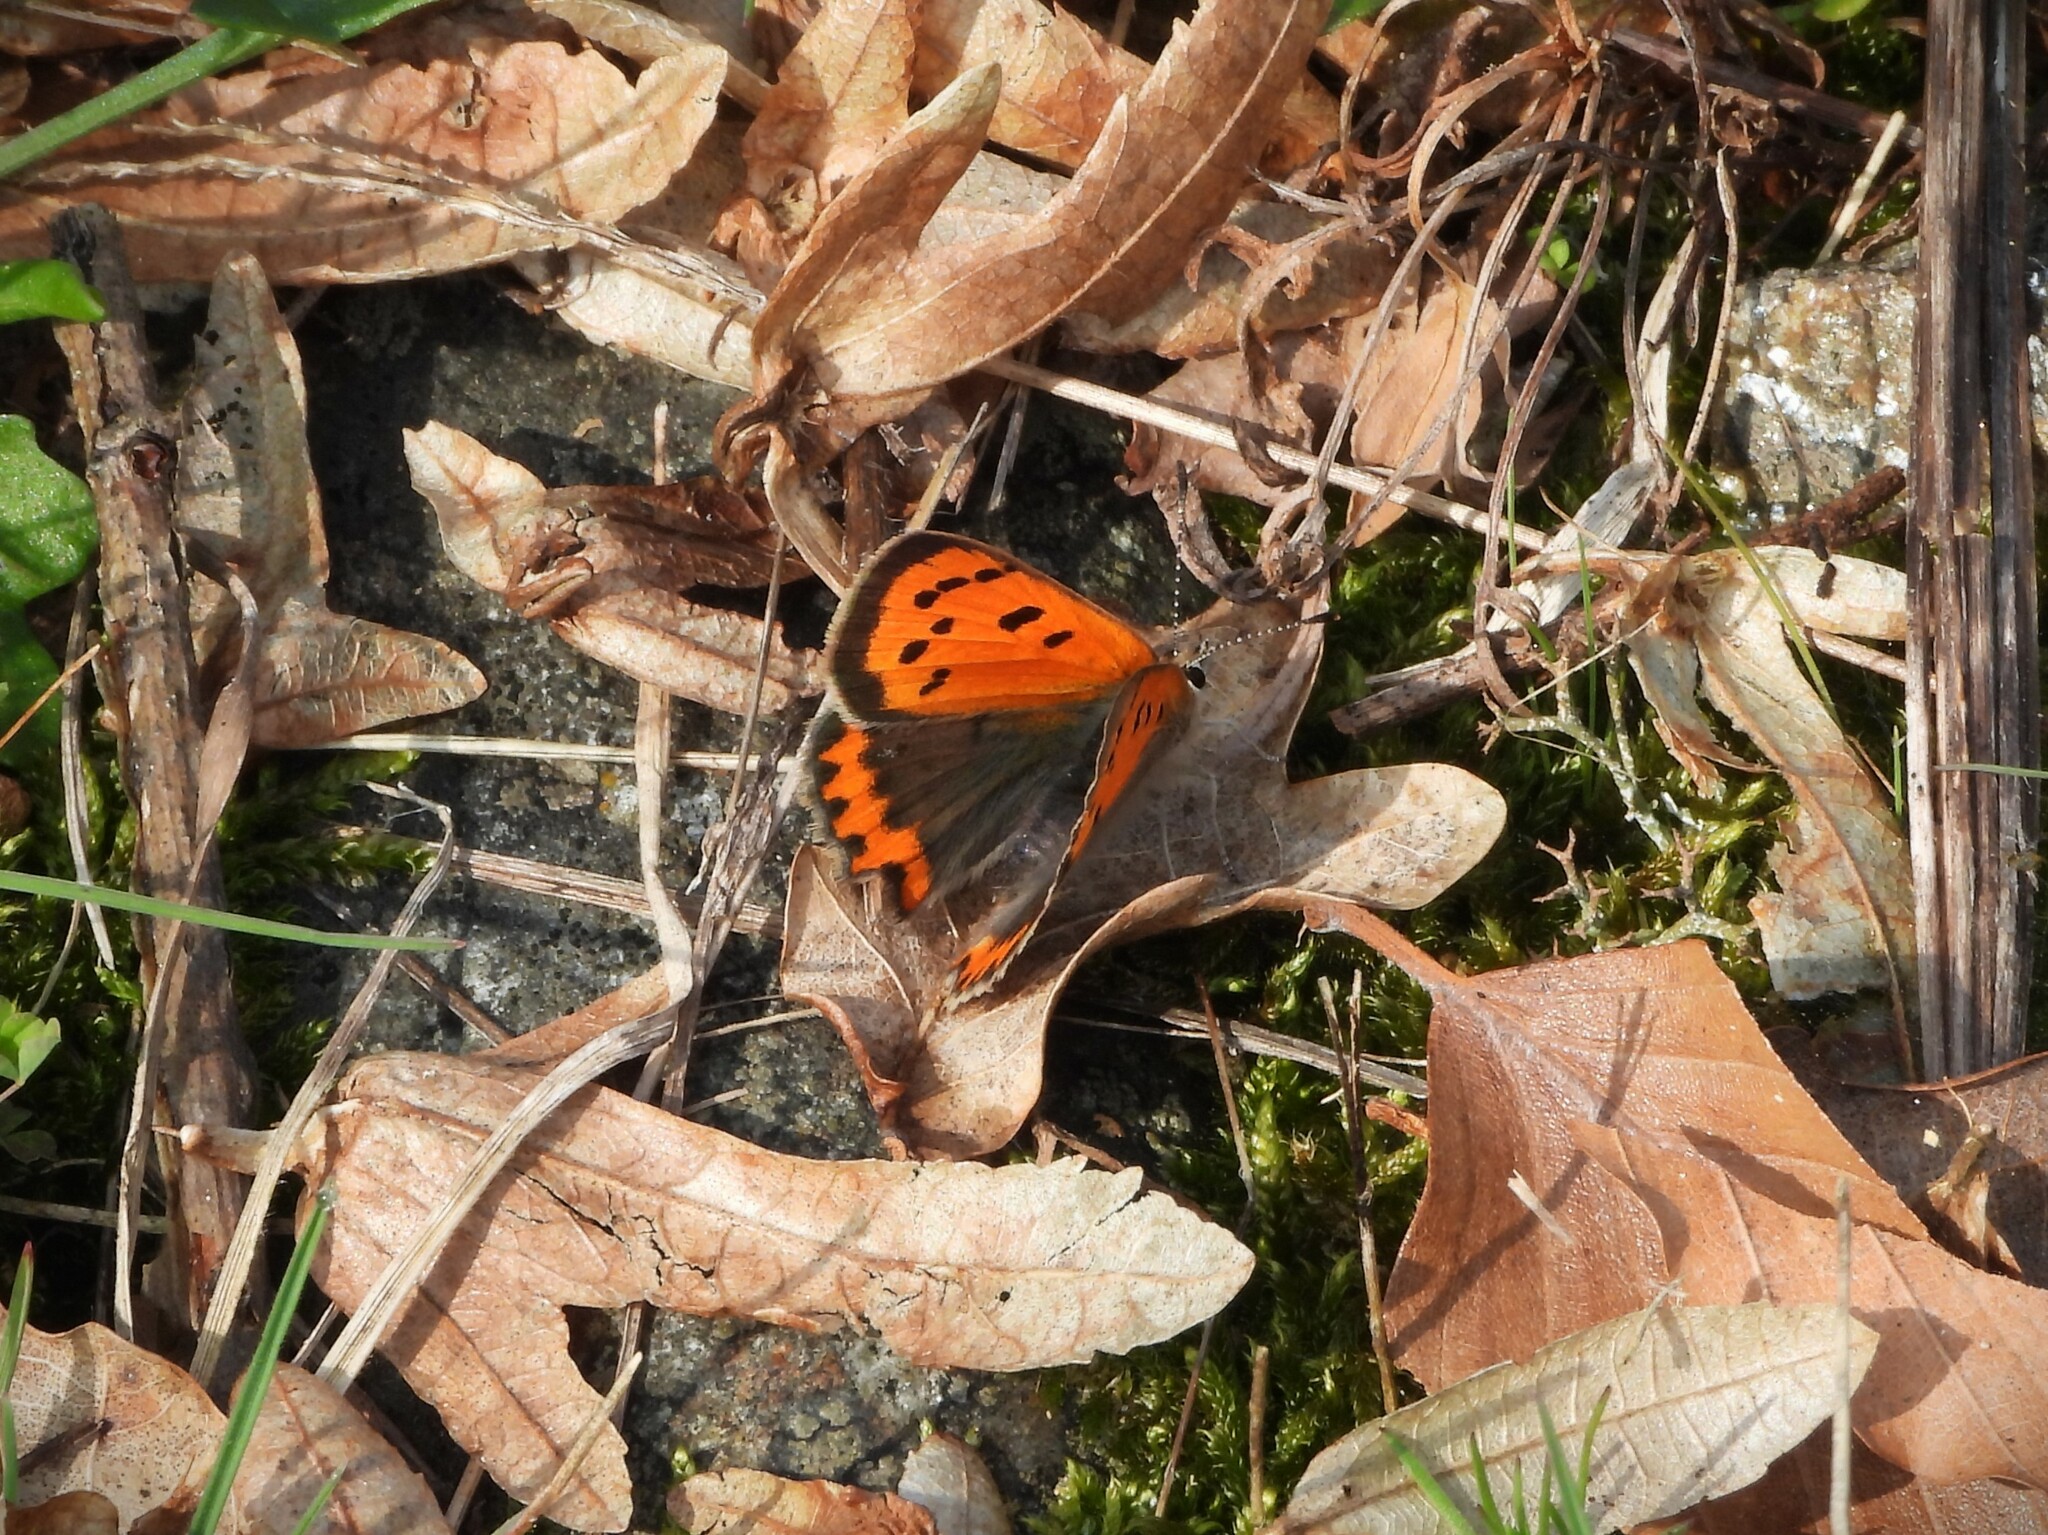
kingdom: Animalia
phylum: Arthropoda
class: Insecta
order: Lepidoptera
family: Lycaenidae
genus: Lycaena
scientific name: Lycaena phlaeas
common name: Small copper
